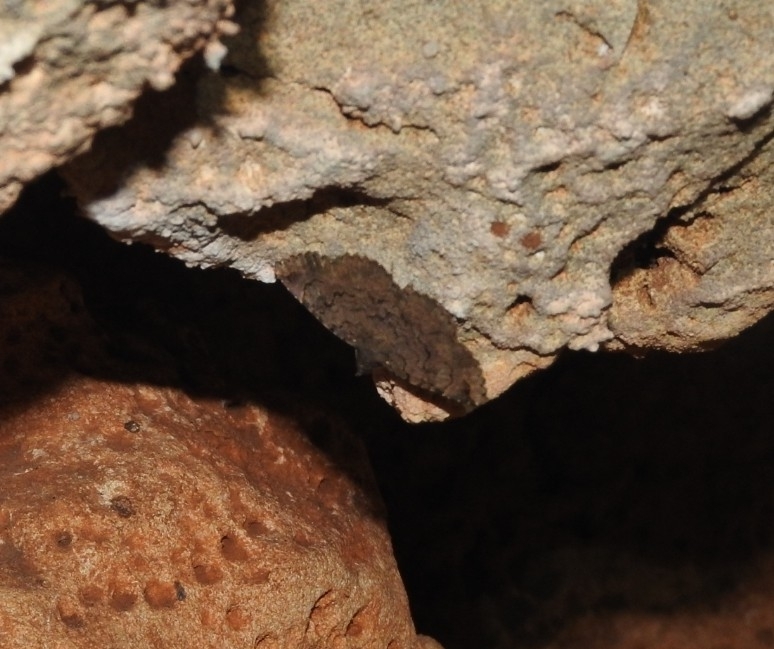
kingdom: Animalia
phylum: Arthropoda
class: Insecta
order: Lepidoptera
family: Erebidae
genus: Latebraria
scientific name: Latebraria amphipyroides
